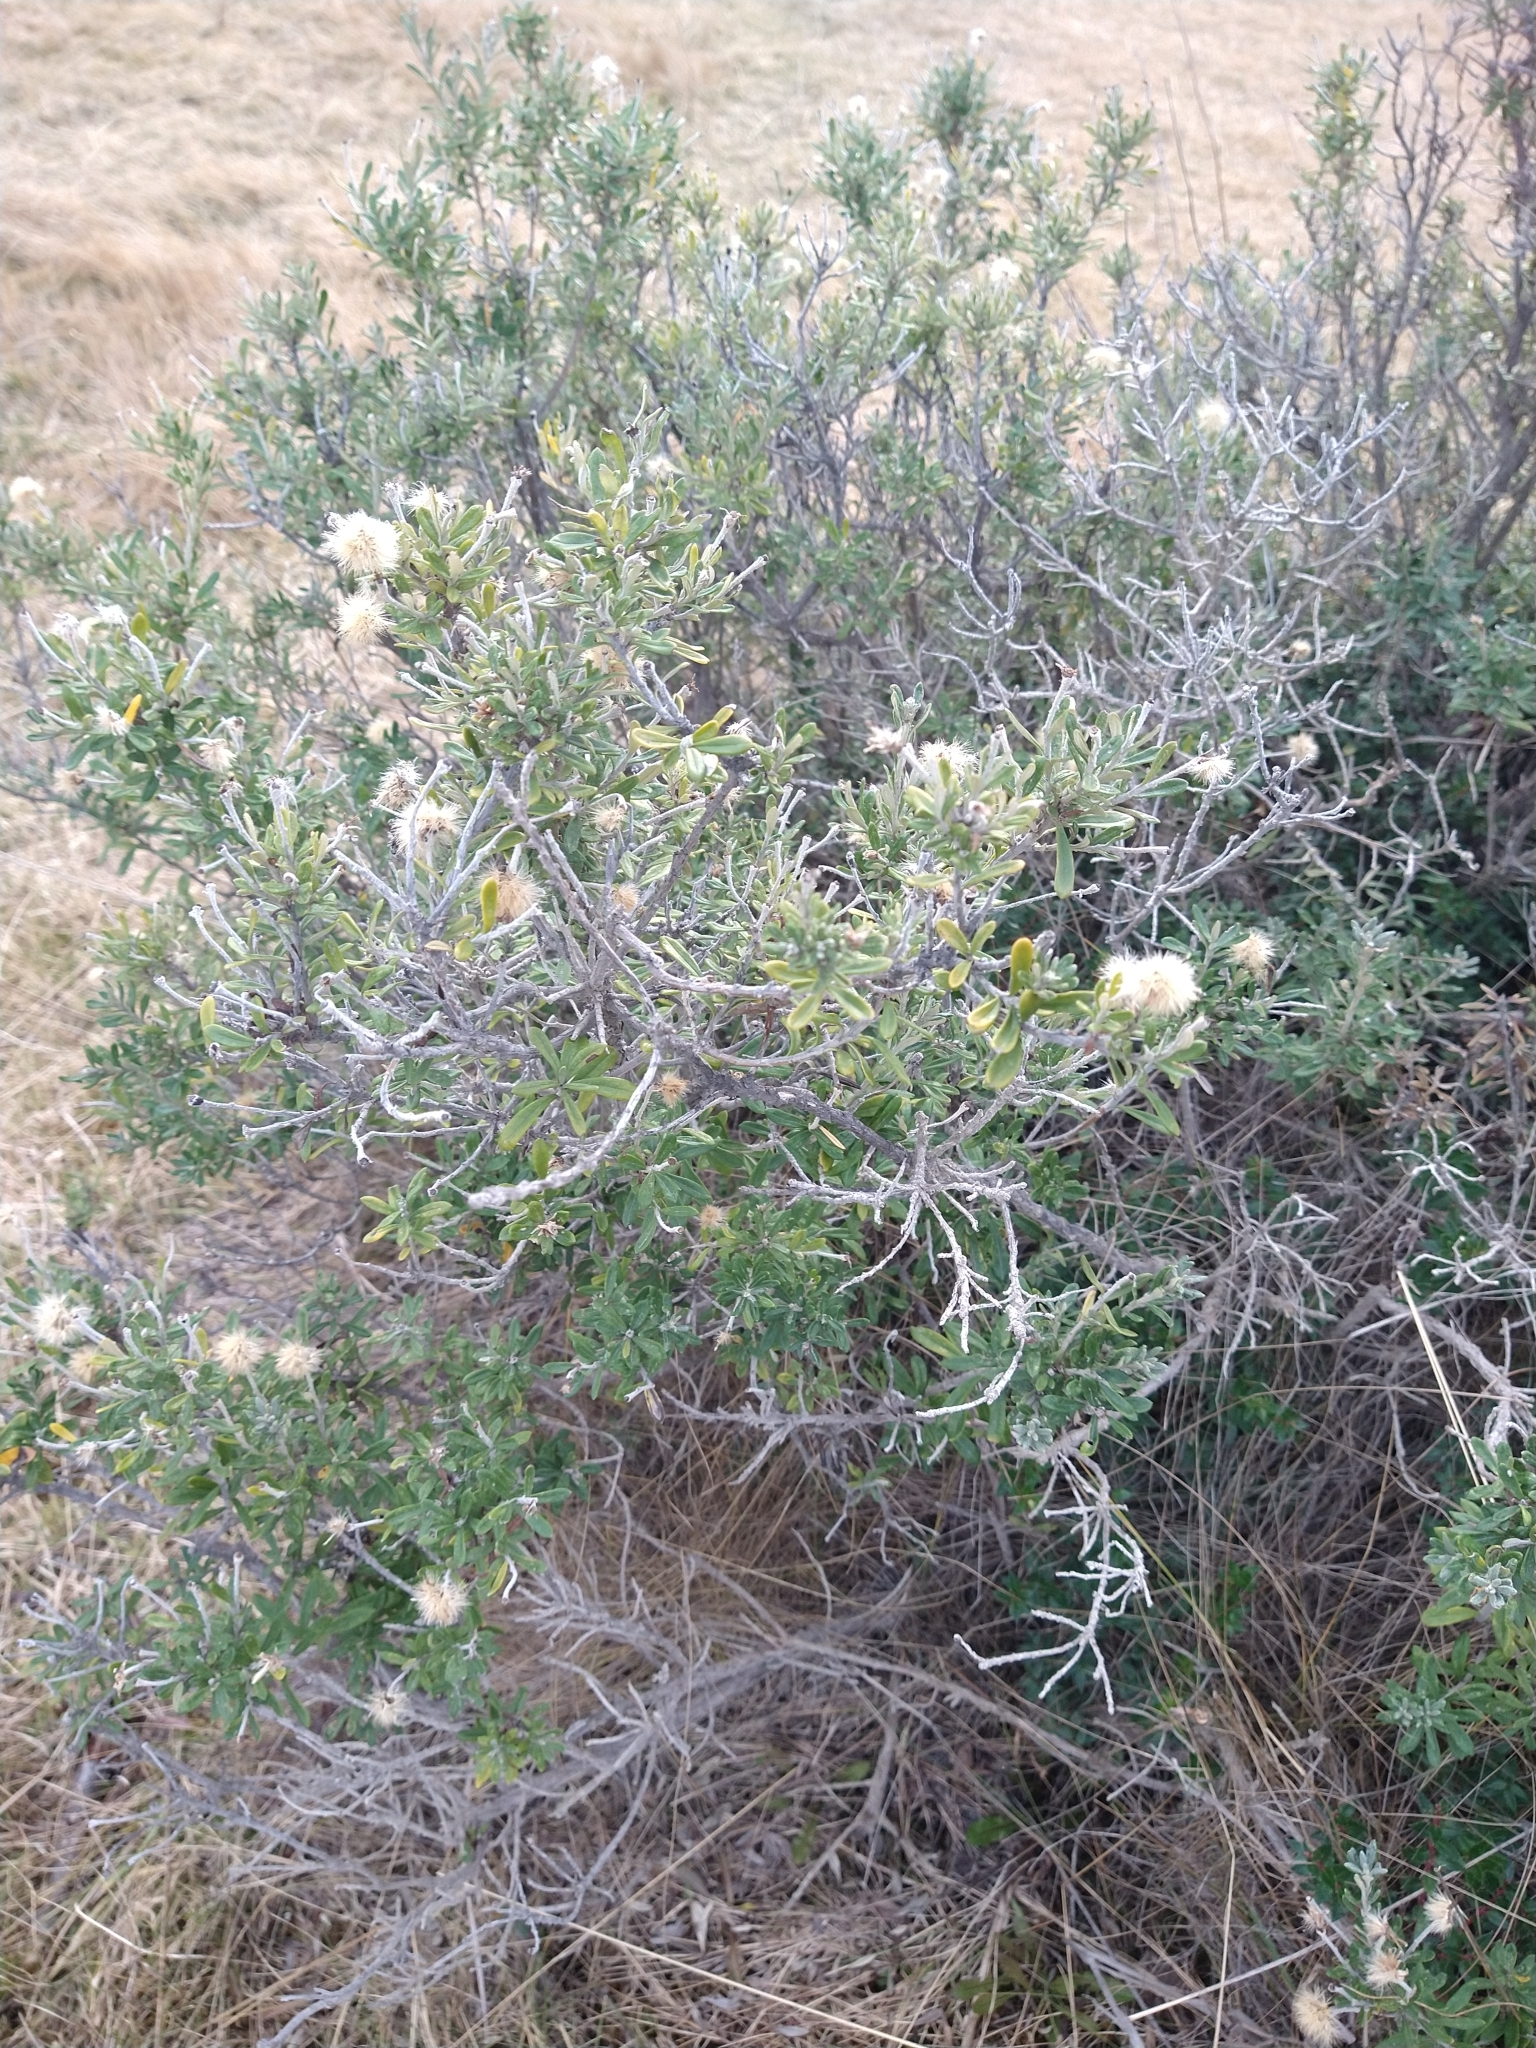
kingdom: Plantae
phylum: Tracheophyta
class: Magnoliopsida
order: Asterales
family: Asteraceae
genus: Chiliotrichum
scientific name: Chiliotrichum diffusum
